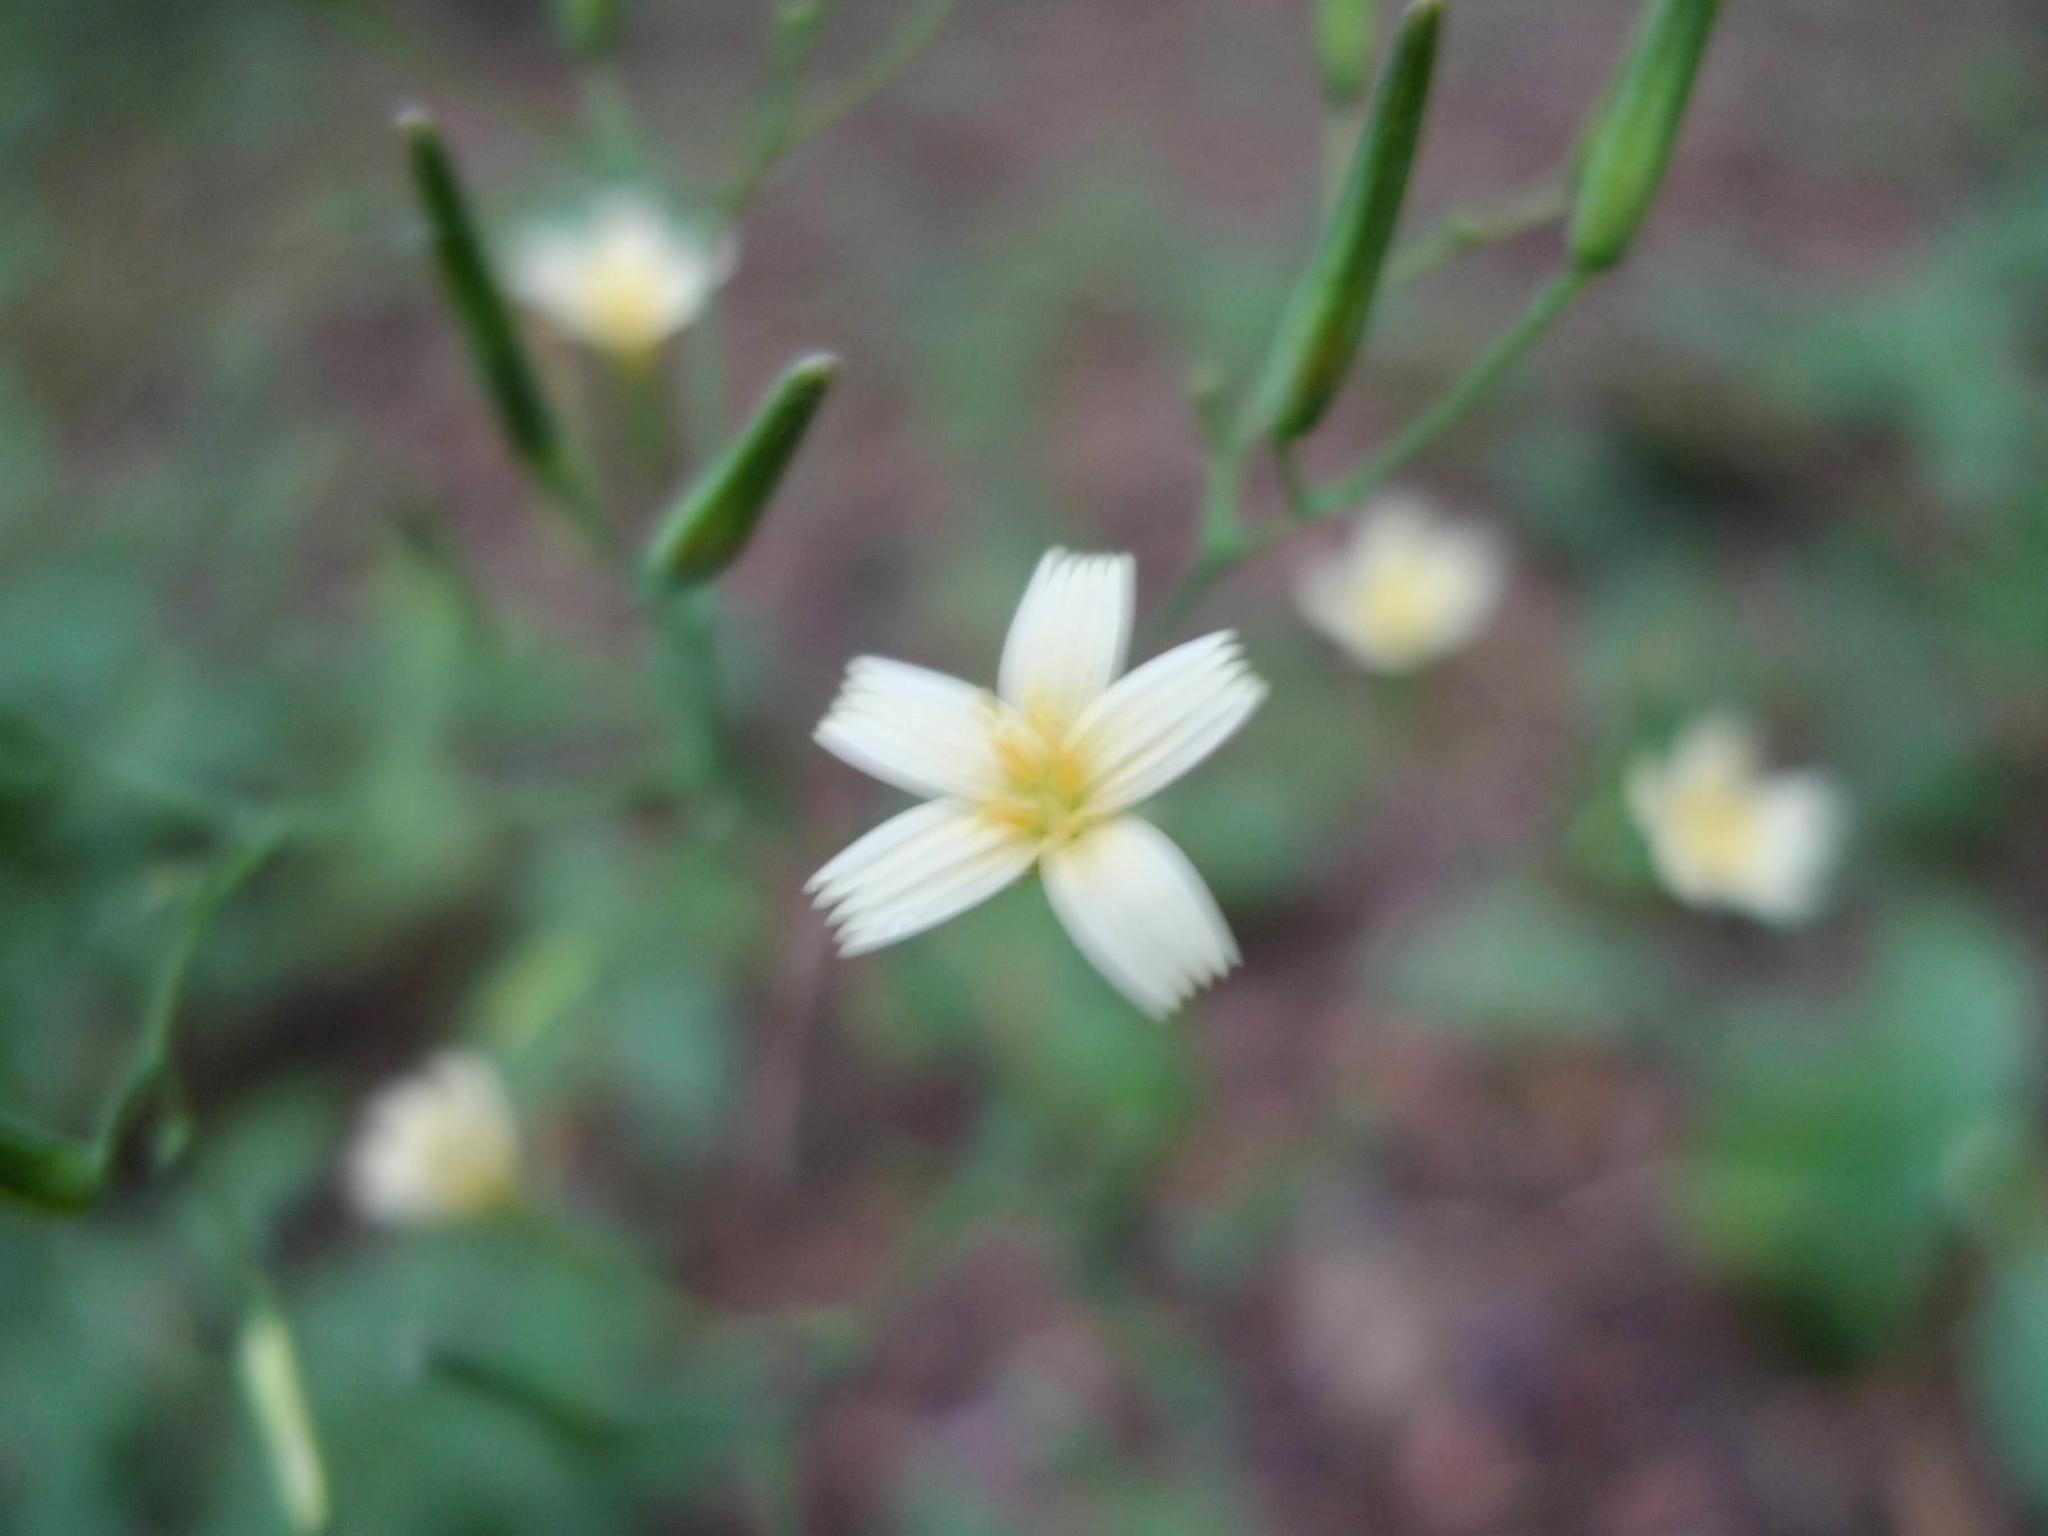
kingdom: Plantae
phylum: Tracheophyta
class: Magnoliopsida
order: Asterales
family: Asteraceae
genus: Mycelis
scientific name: Mycelis muralis
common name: Wall lettuce
